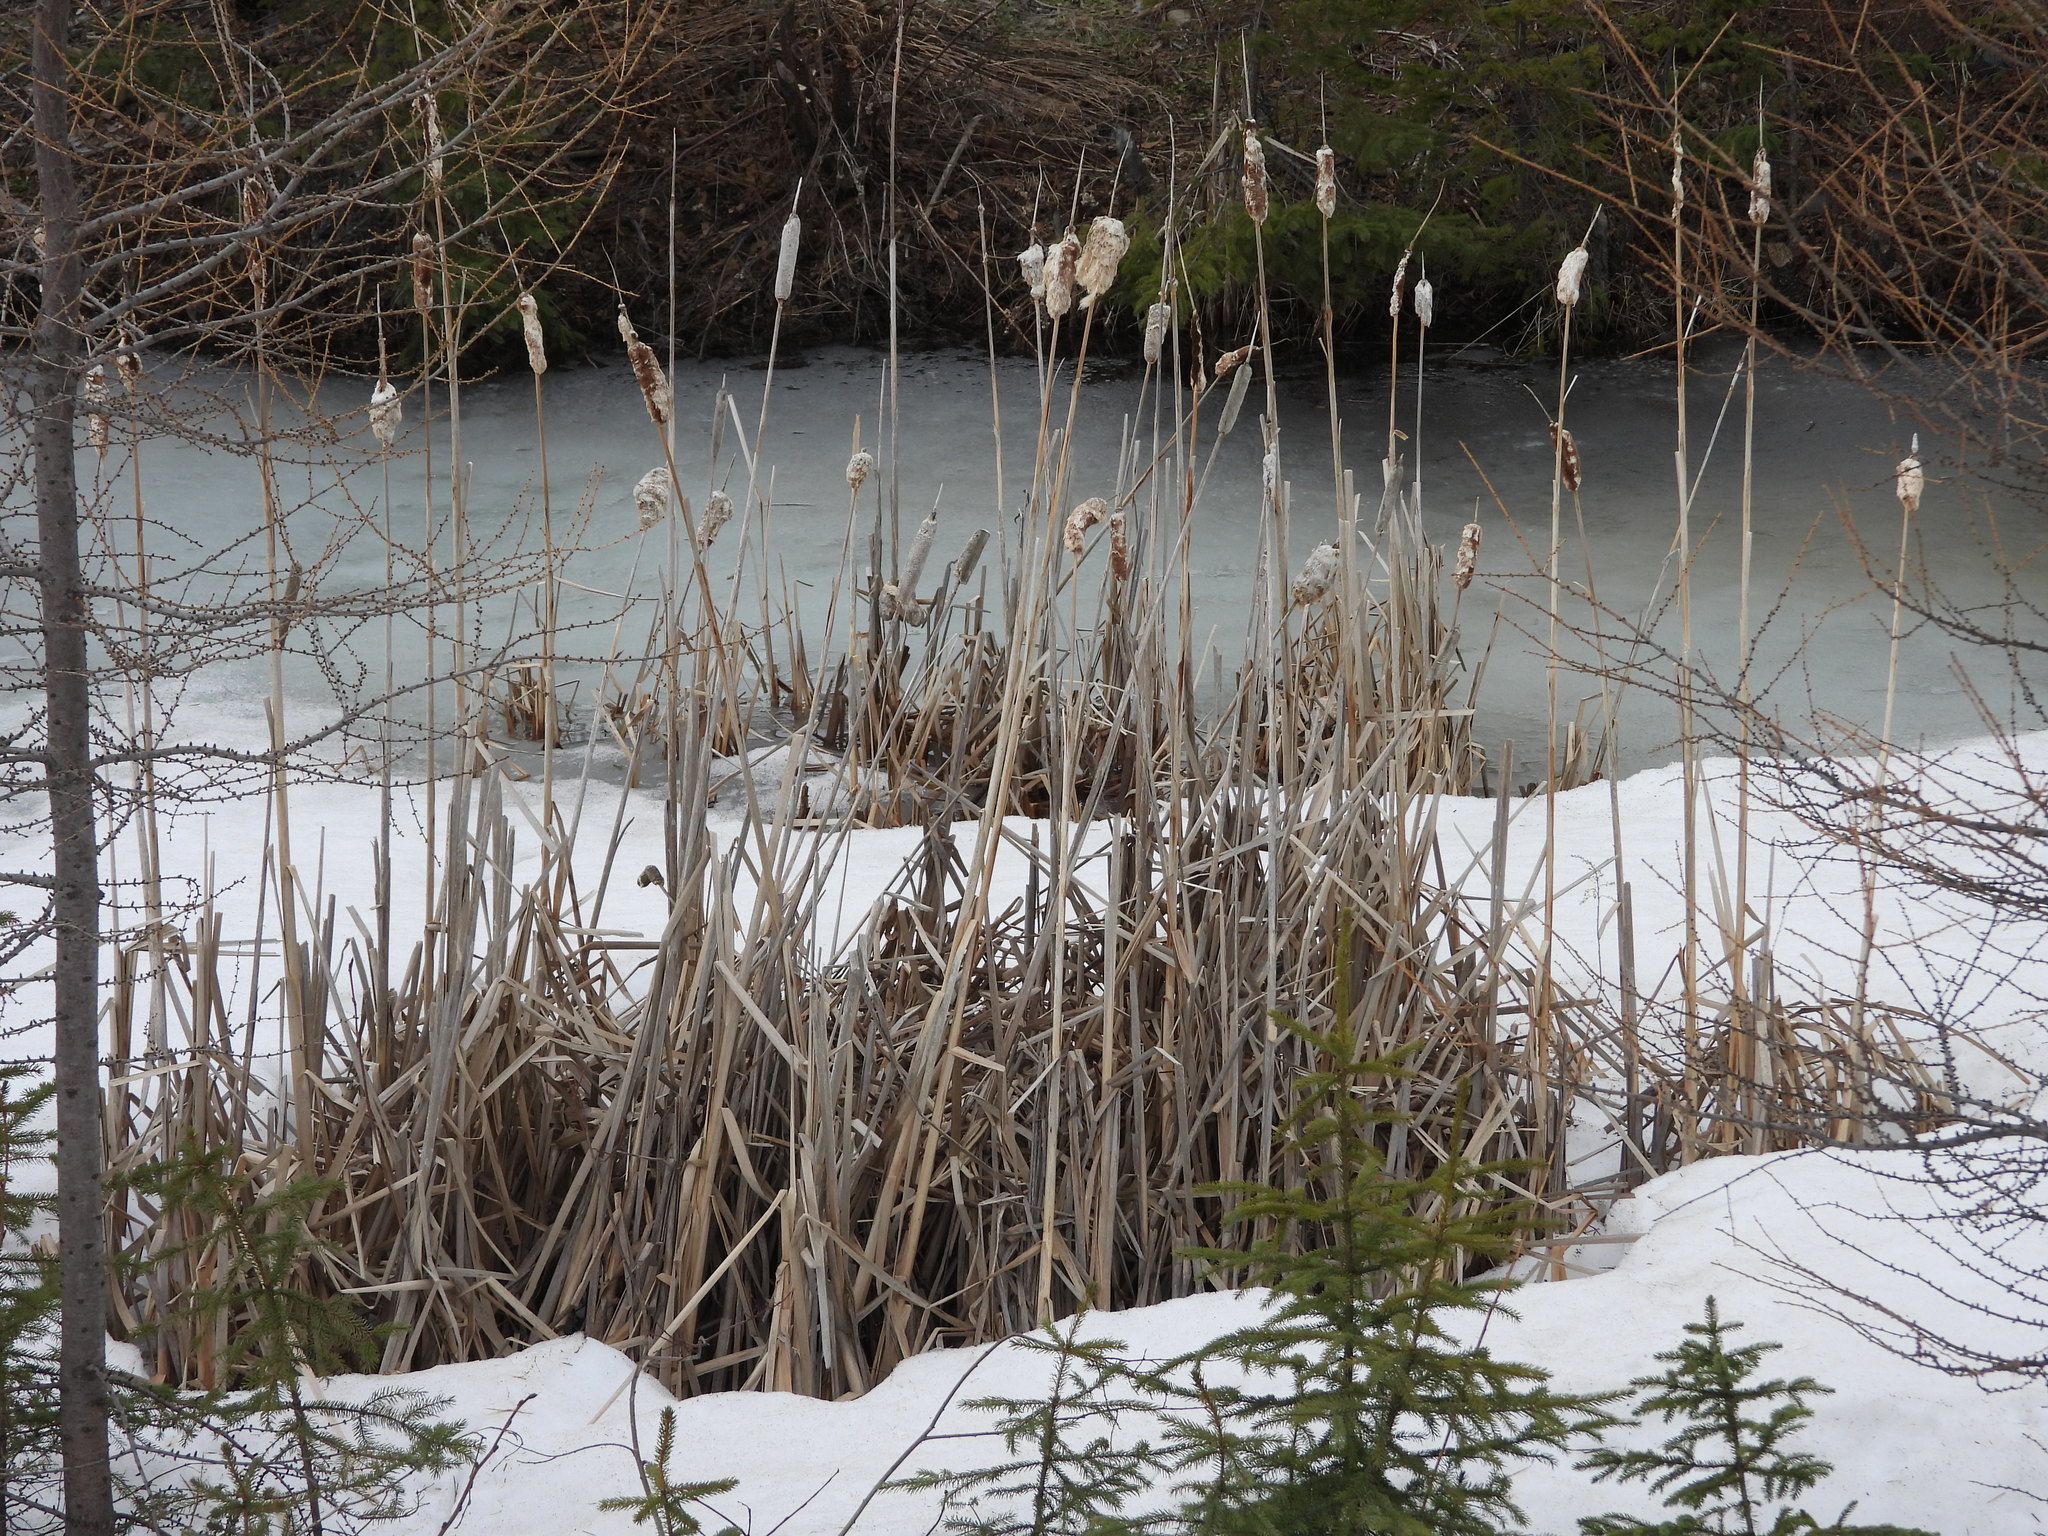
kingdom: Plantae
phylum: Tracheophyta
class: Liliopsida
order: Poales
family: Typhaceae
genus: Typha
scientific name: Typha latifolia
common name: Broadleaf cattail
